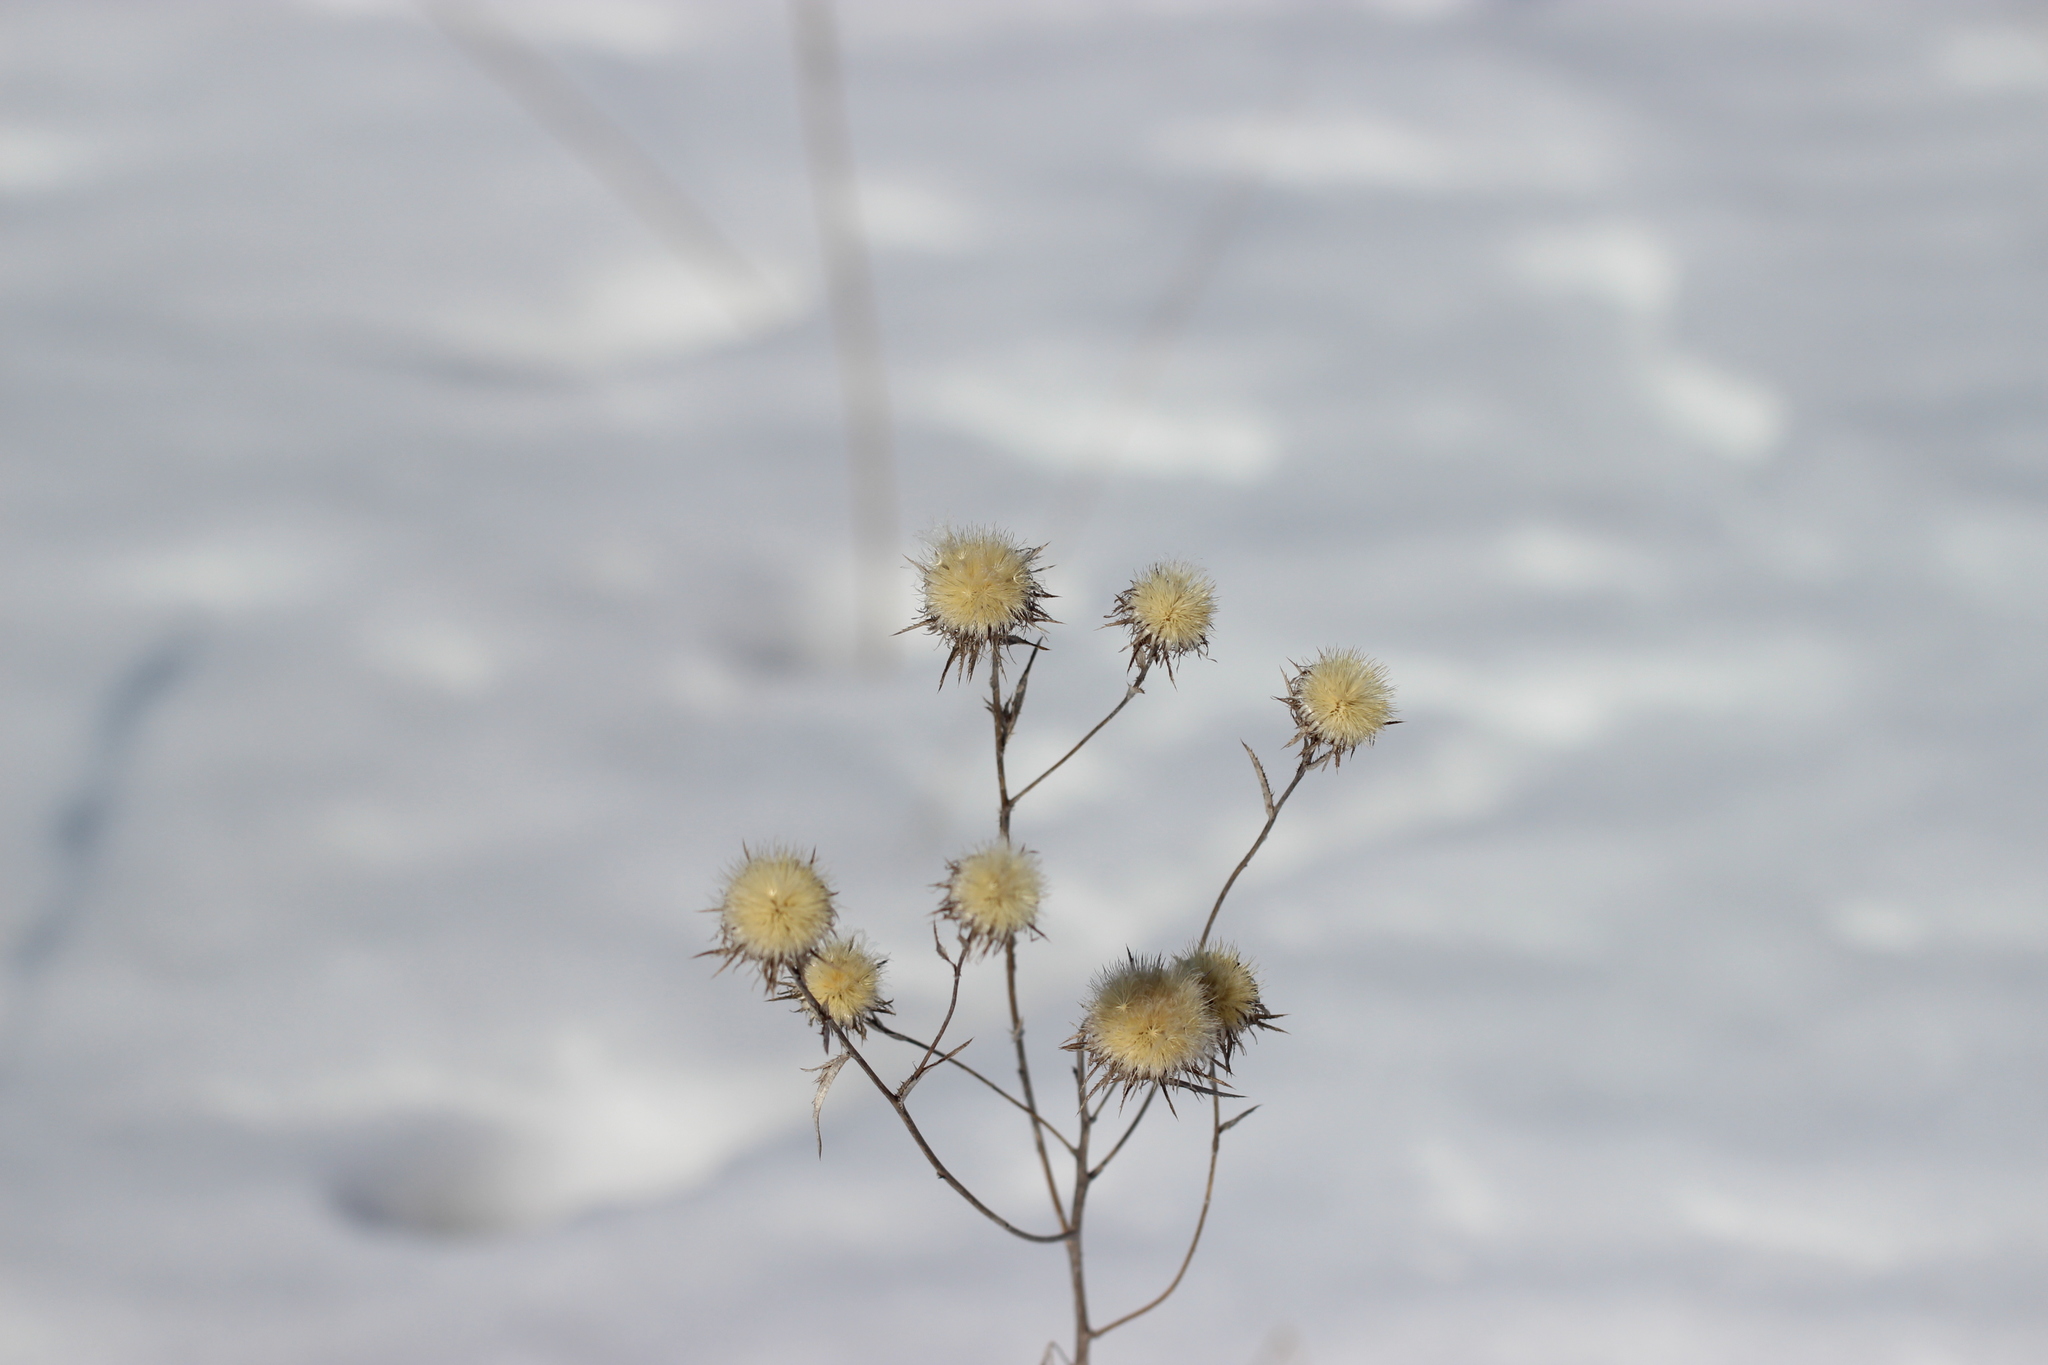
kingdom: Plantae
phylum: Tracheophyta
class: Magnoliopsida
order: Asterales
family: Asteraceae
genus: Carlina
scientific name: Carlina biebersteinii
